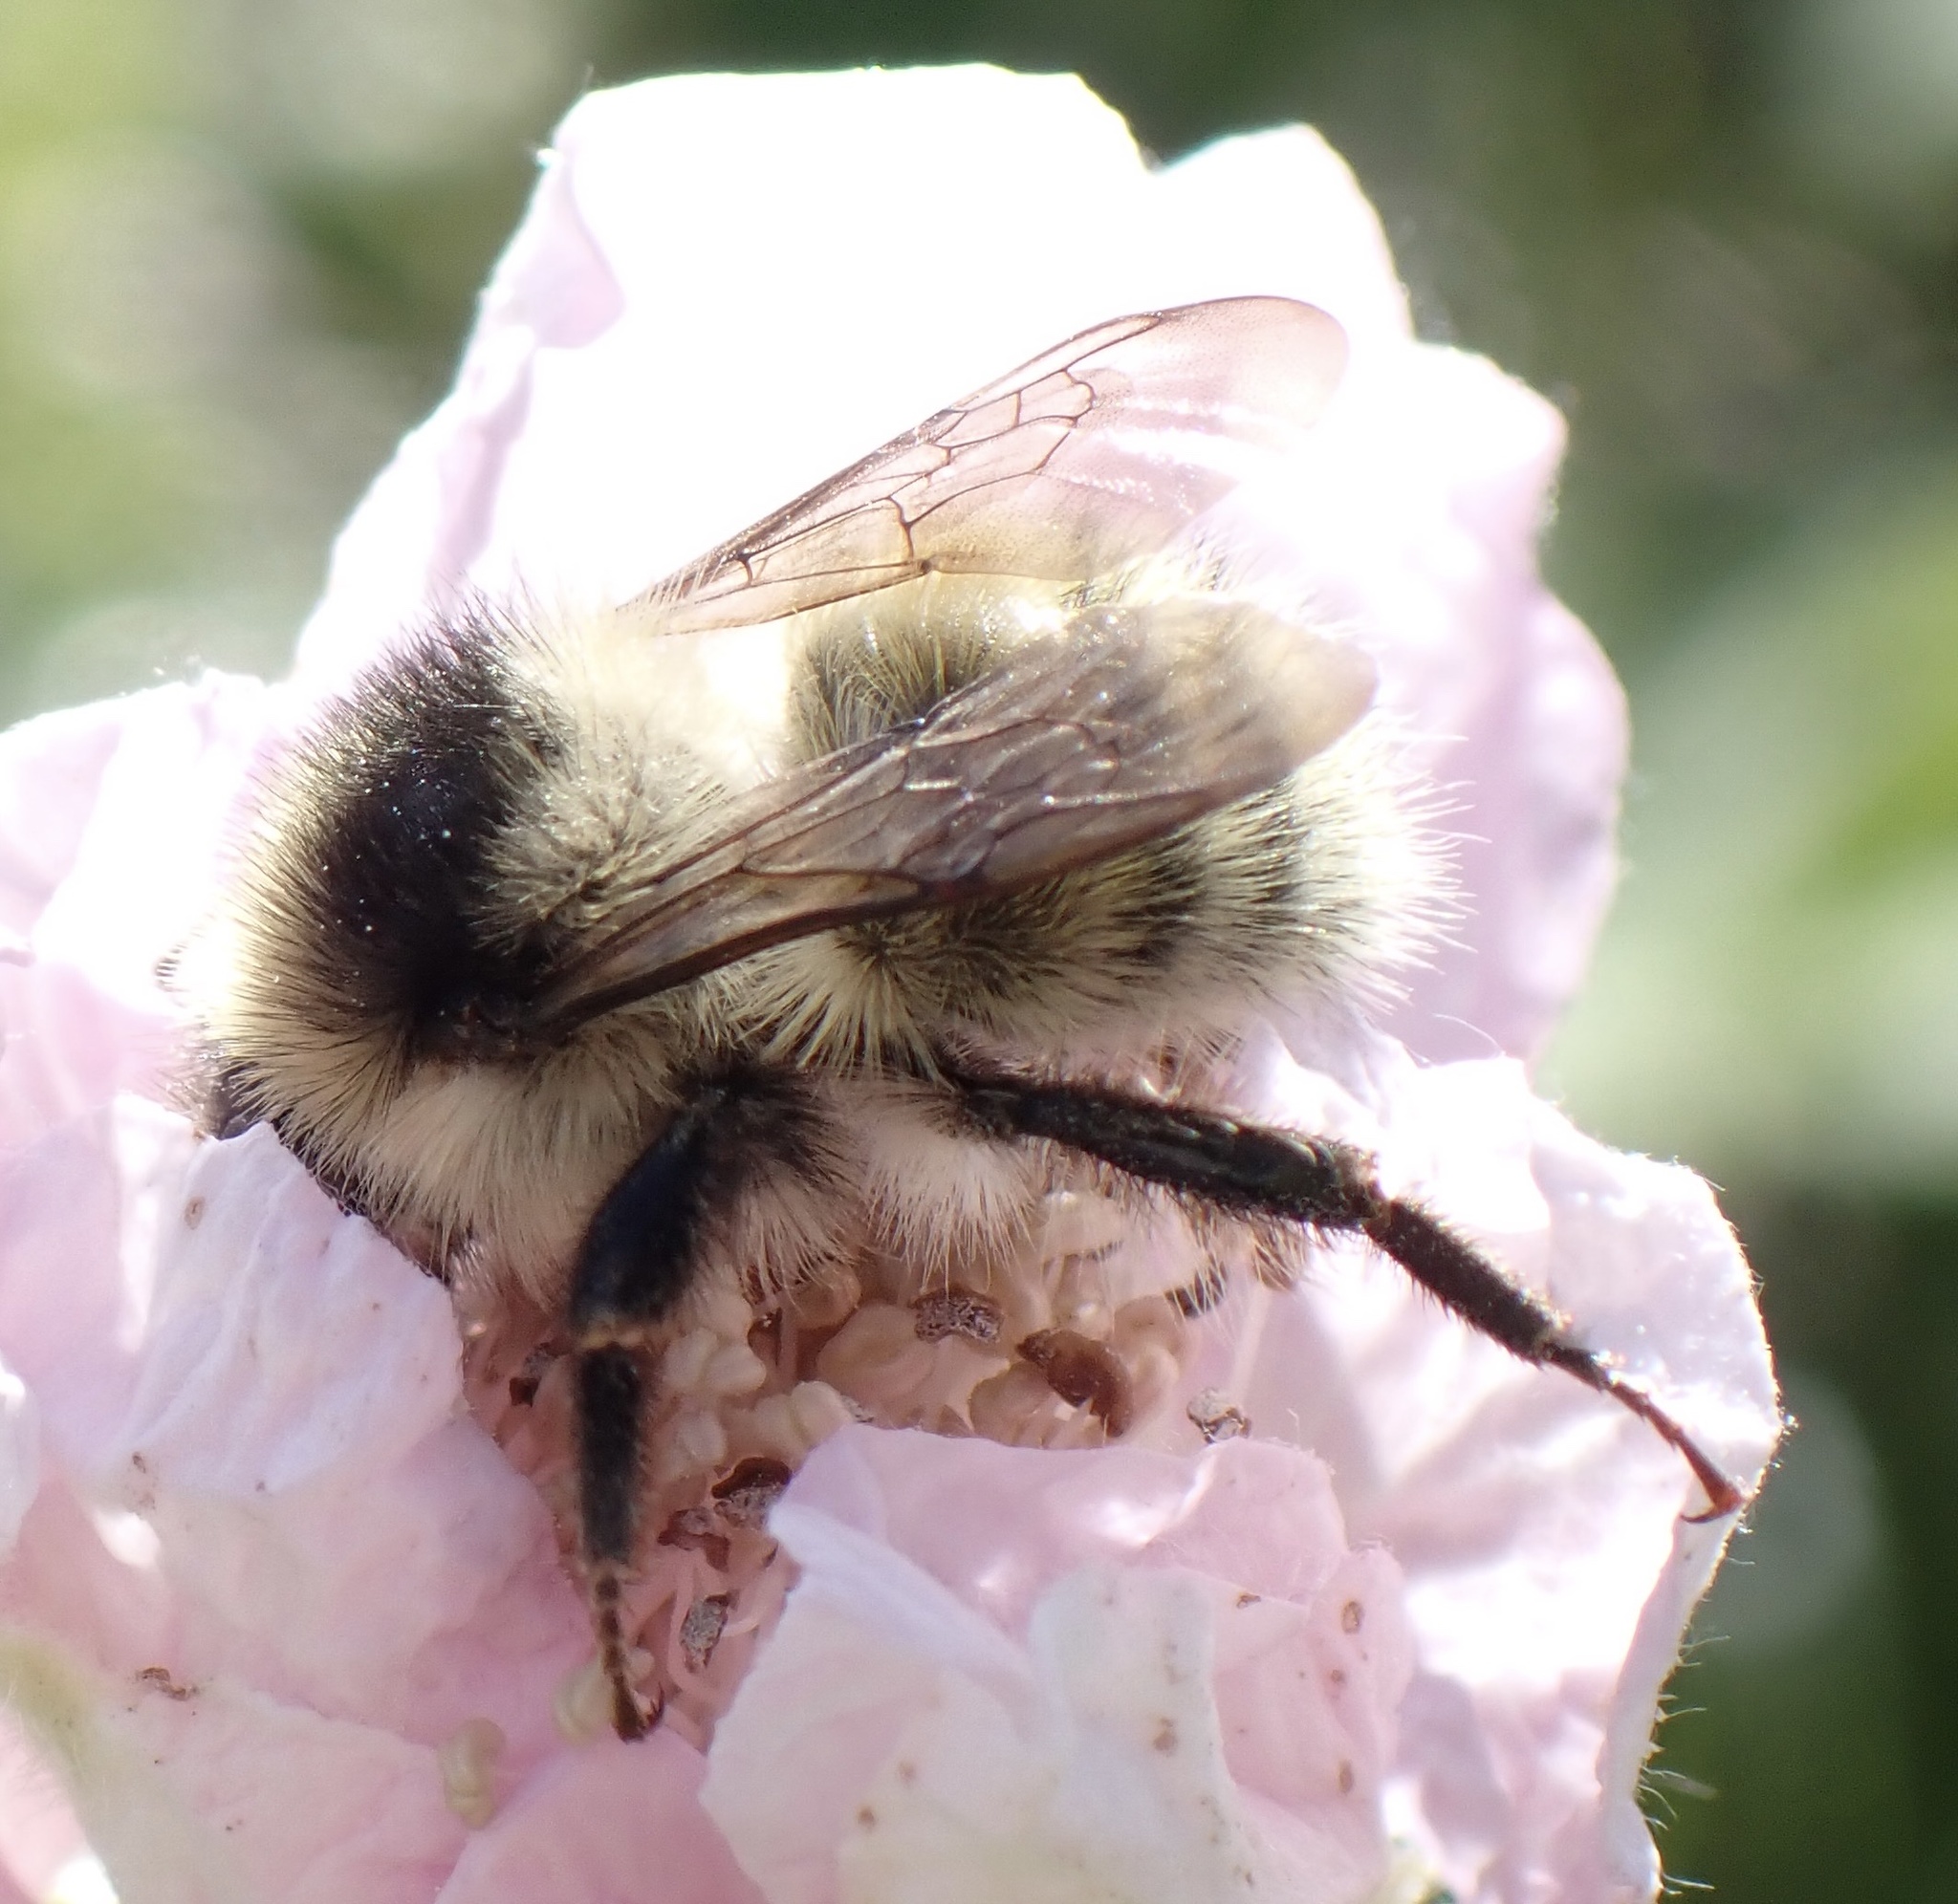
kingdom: Animalia
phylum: Arthropoda
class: Insecta
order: Hymenoptera
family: Apidae
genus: Bombus
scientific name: Bombus veteranus
